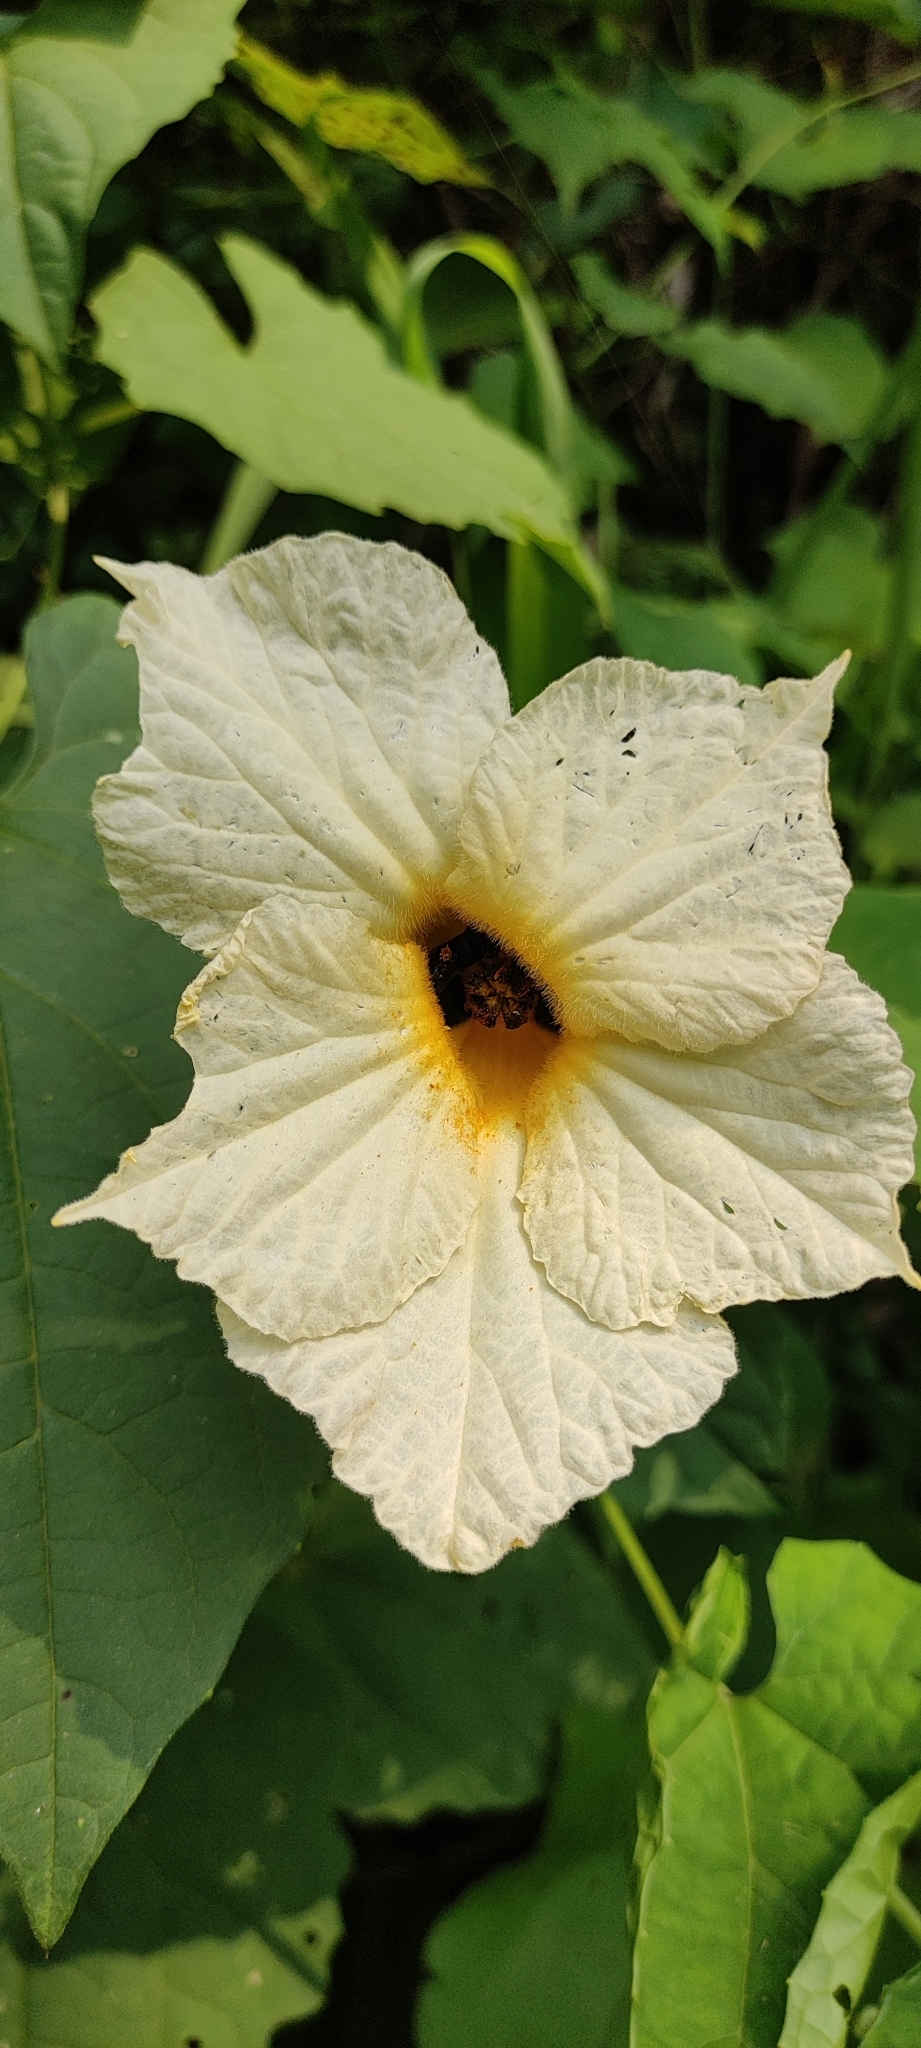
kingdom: Plantae
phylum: Tracheophyta
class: Magnoliopsida
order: Cucurbitales
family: Cucurbitaceae
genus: Momordica
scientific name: Momordica dioica
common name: Spine gourd
